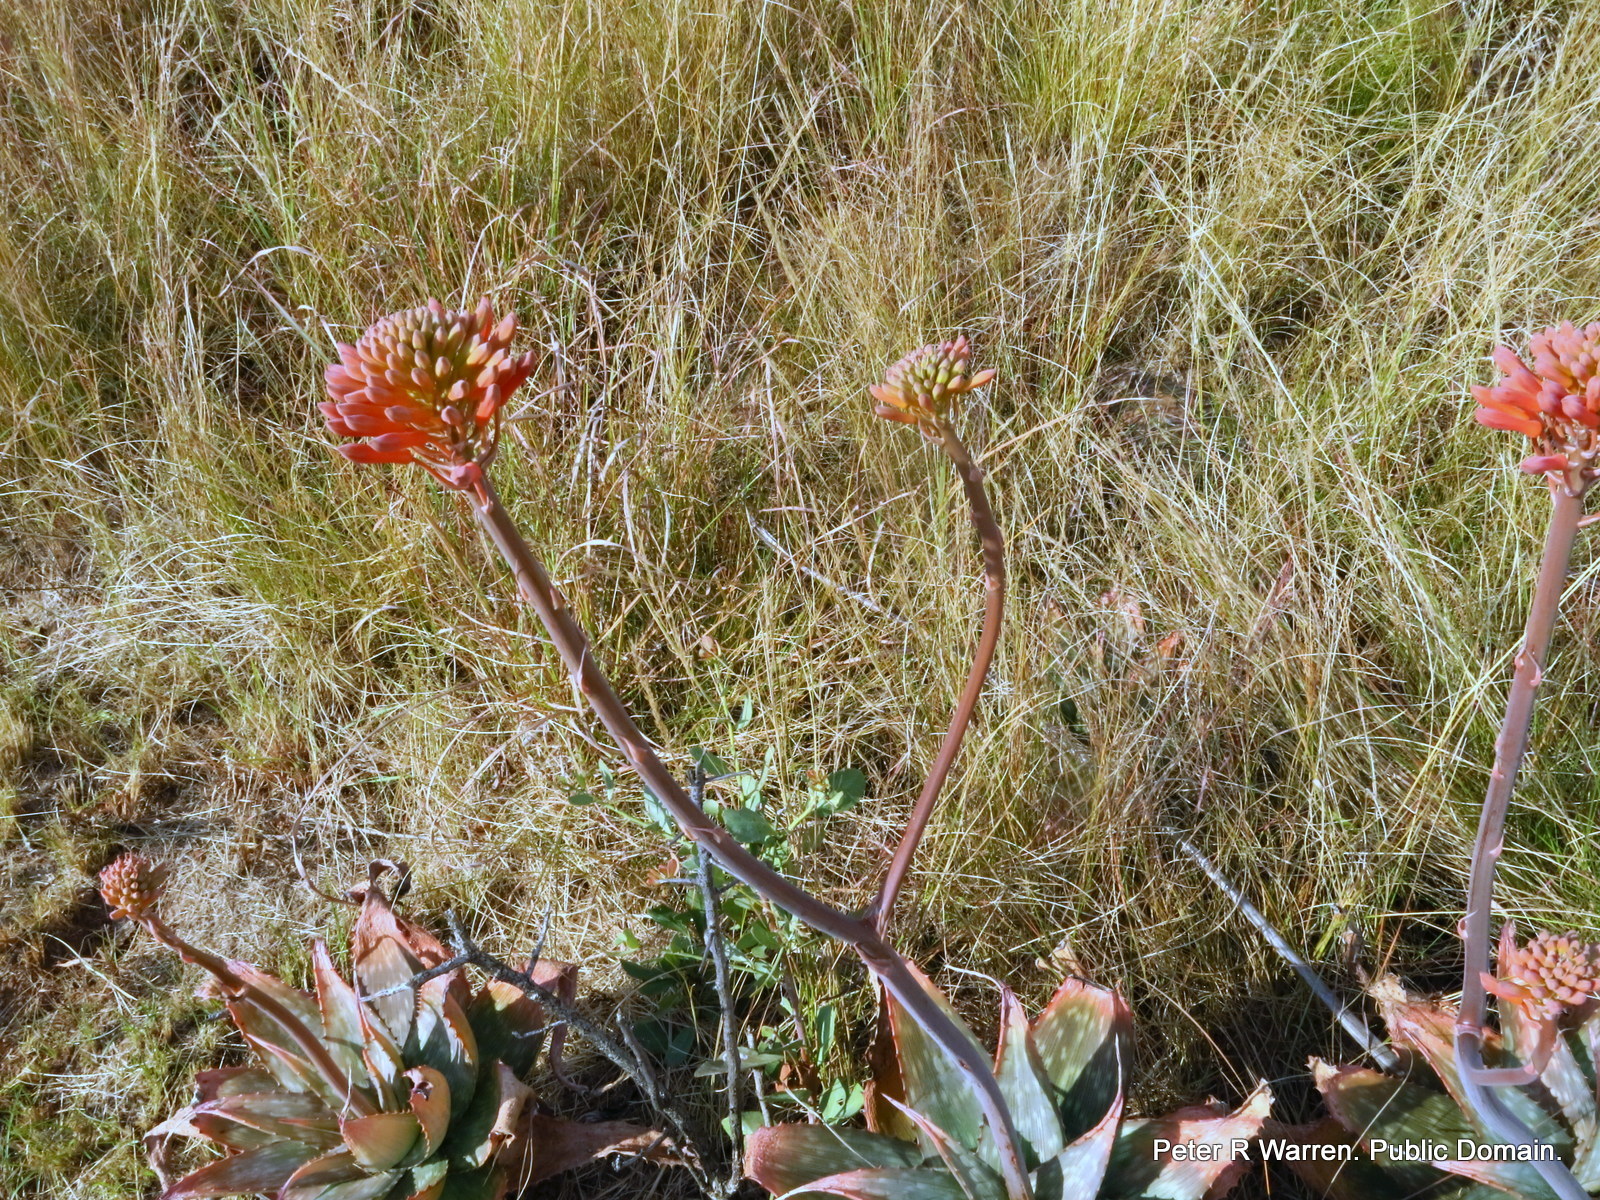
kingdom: Plantae
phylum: Tracheophyta
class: Liliopsida
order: Asparagales
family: Asphodelaceae
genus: Aloe
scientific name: Aloe maculata
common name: Broadleaf aloe
